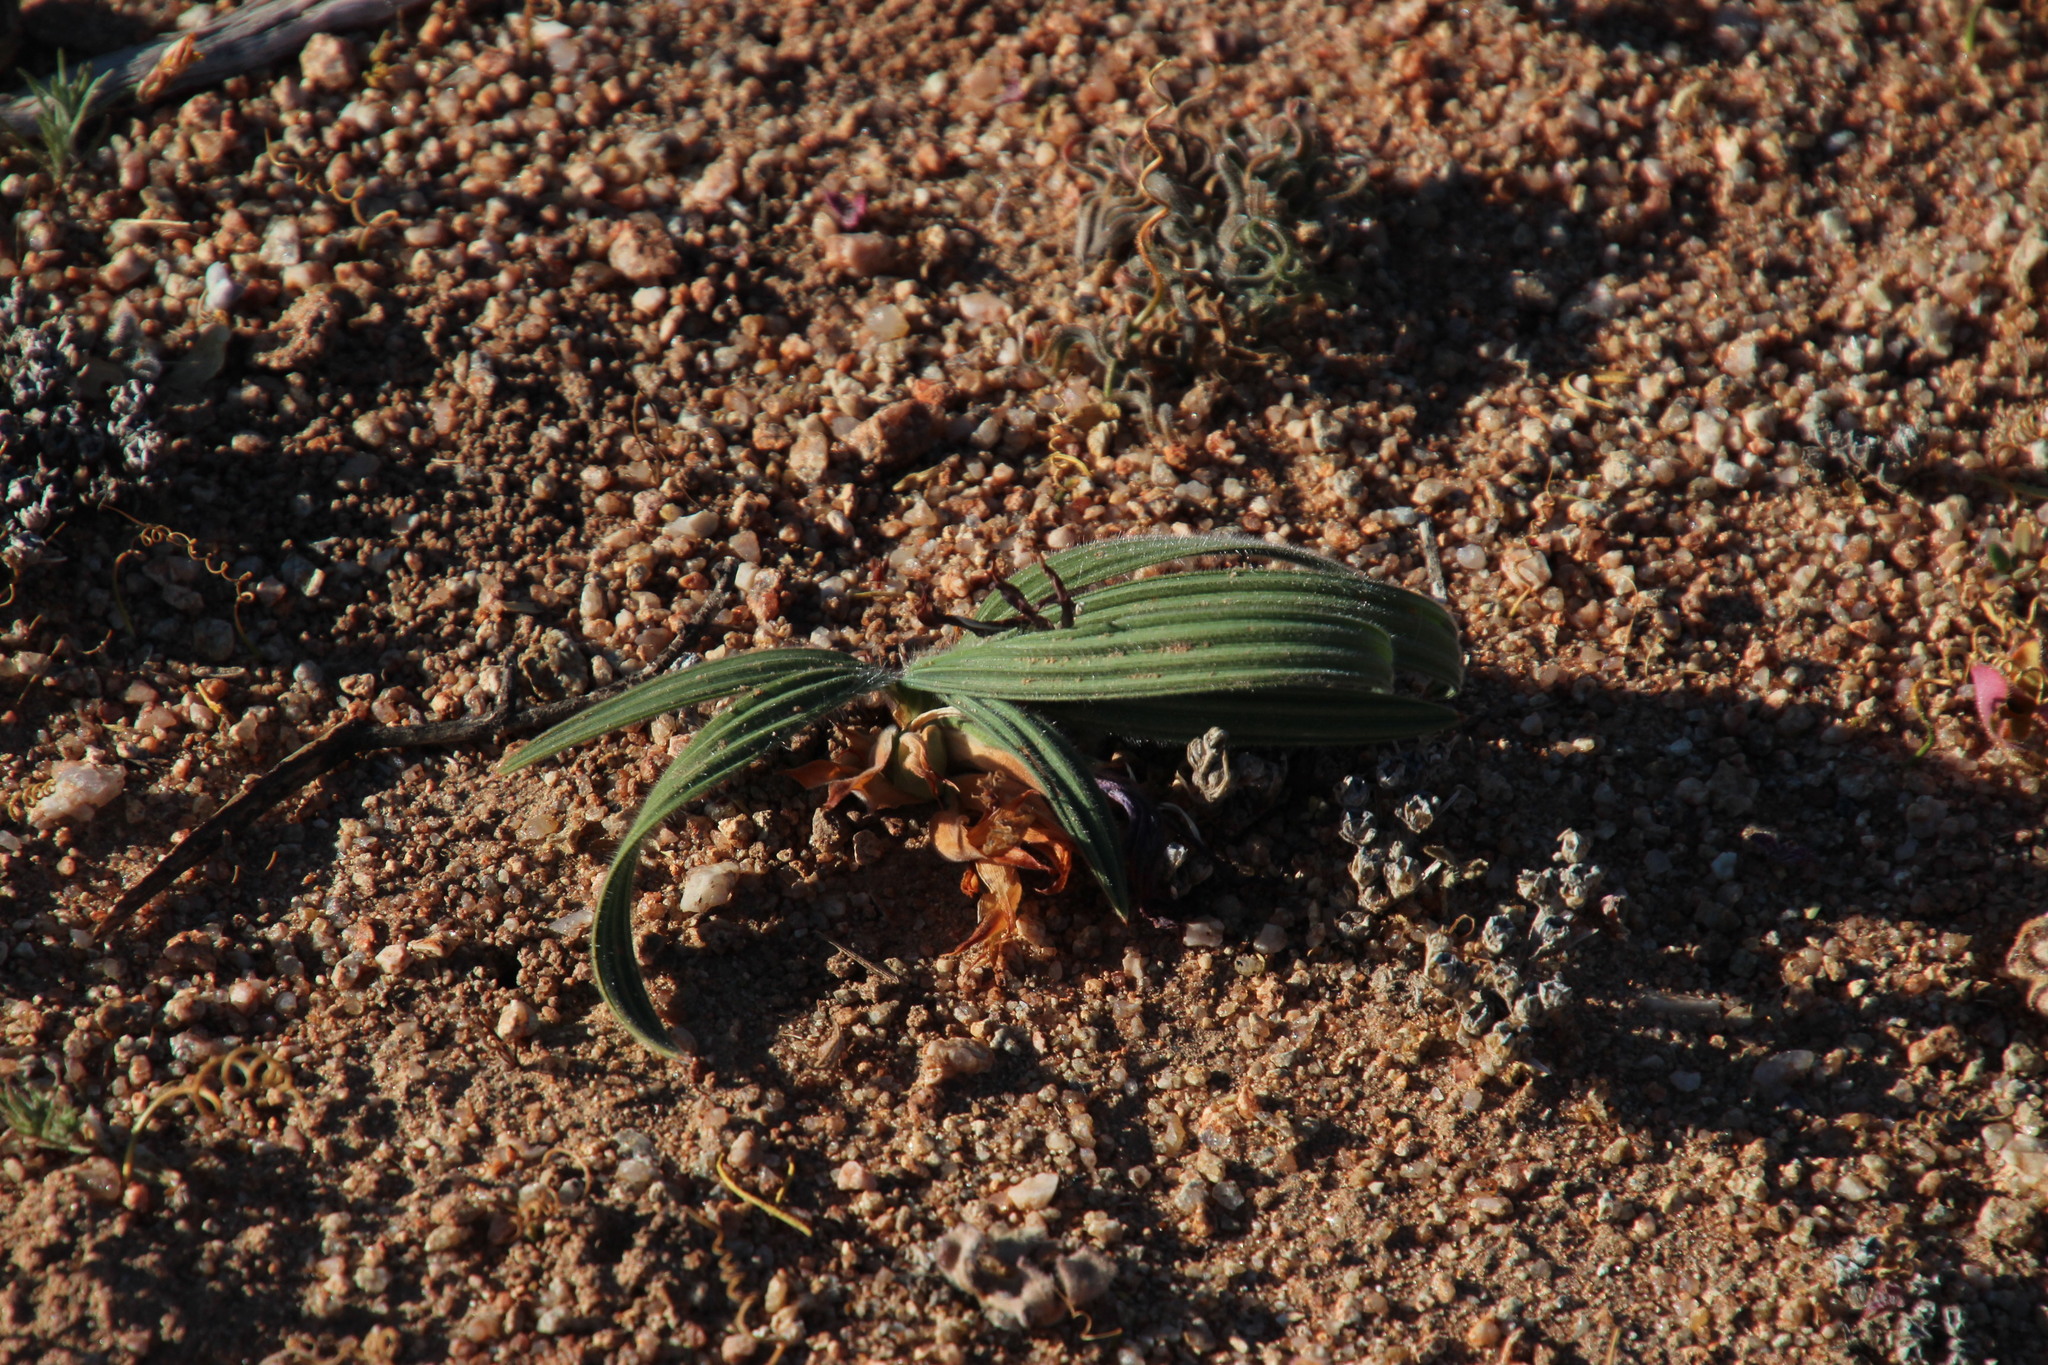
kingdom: Plantae
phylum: Tracheophyta
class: Liliopsida
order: Asparagales
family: Iridaceae
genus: Babiana
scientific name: Babiana curviscapa
